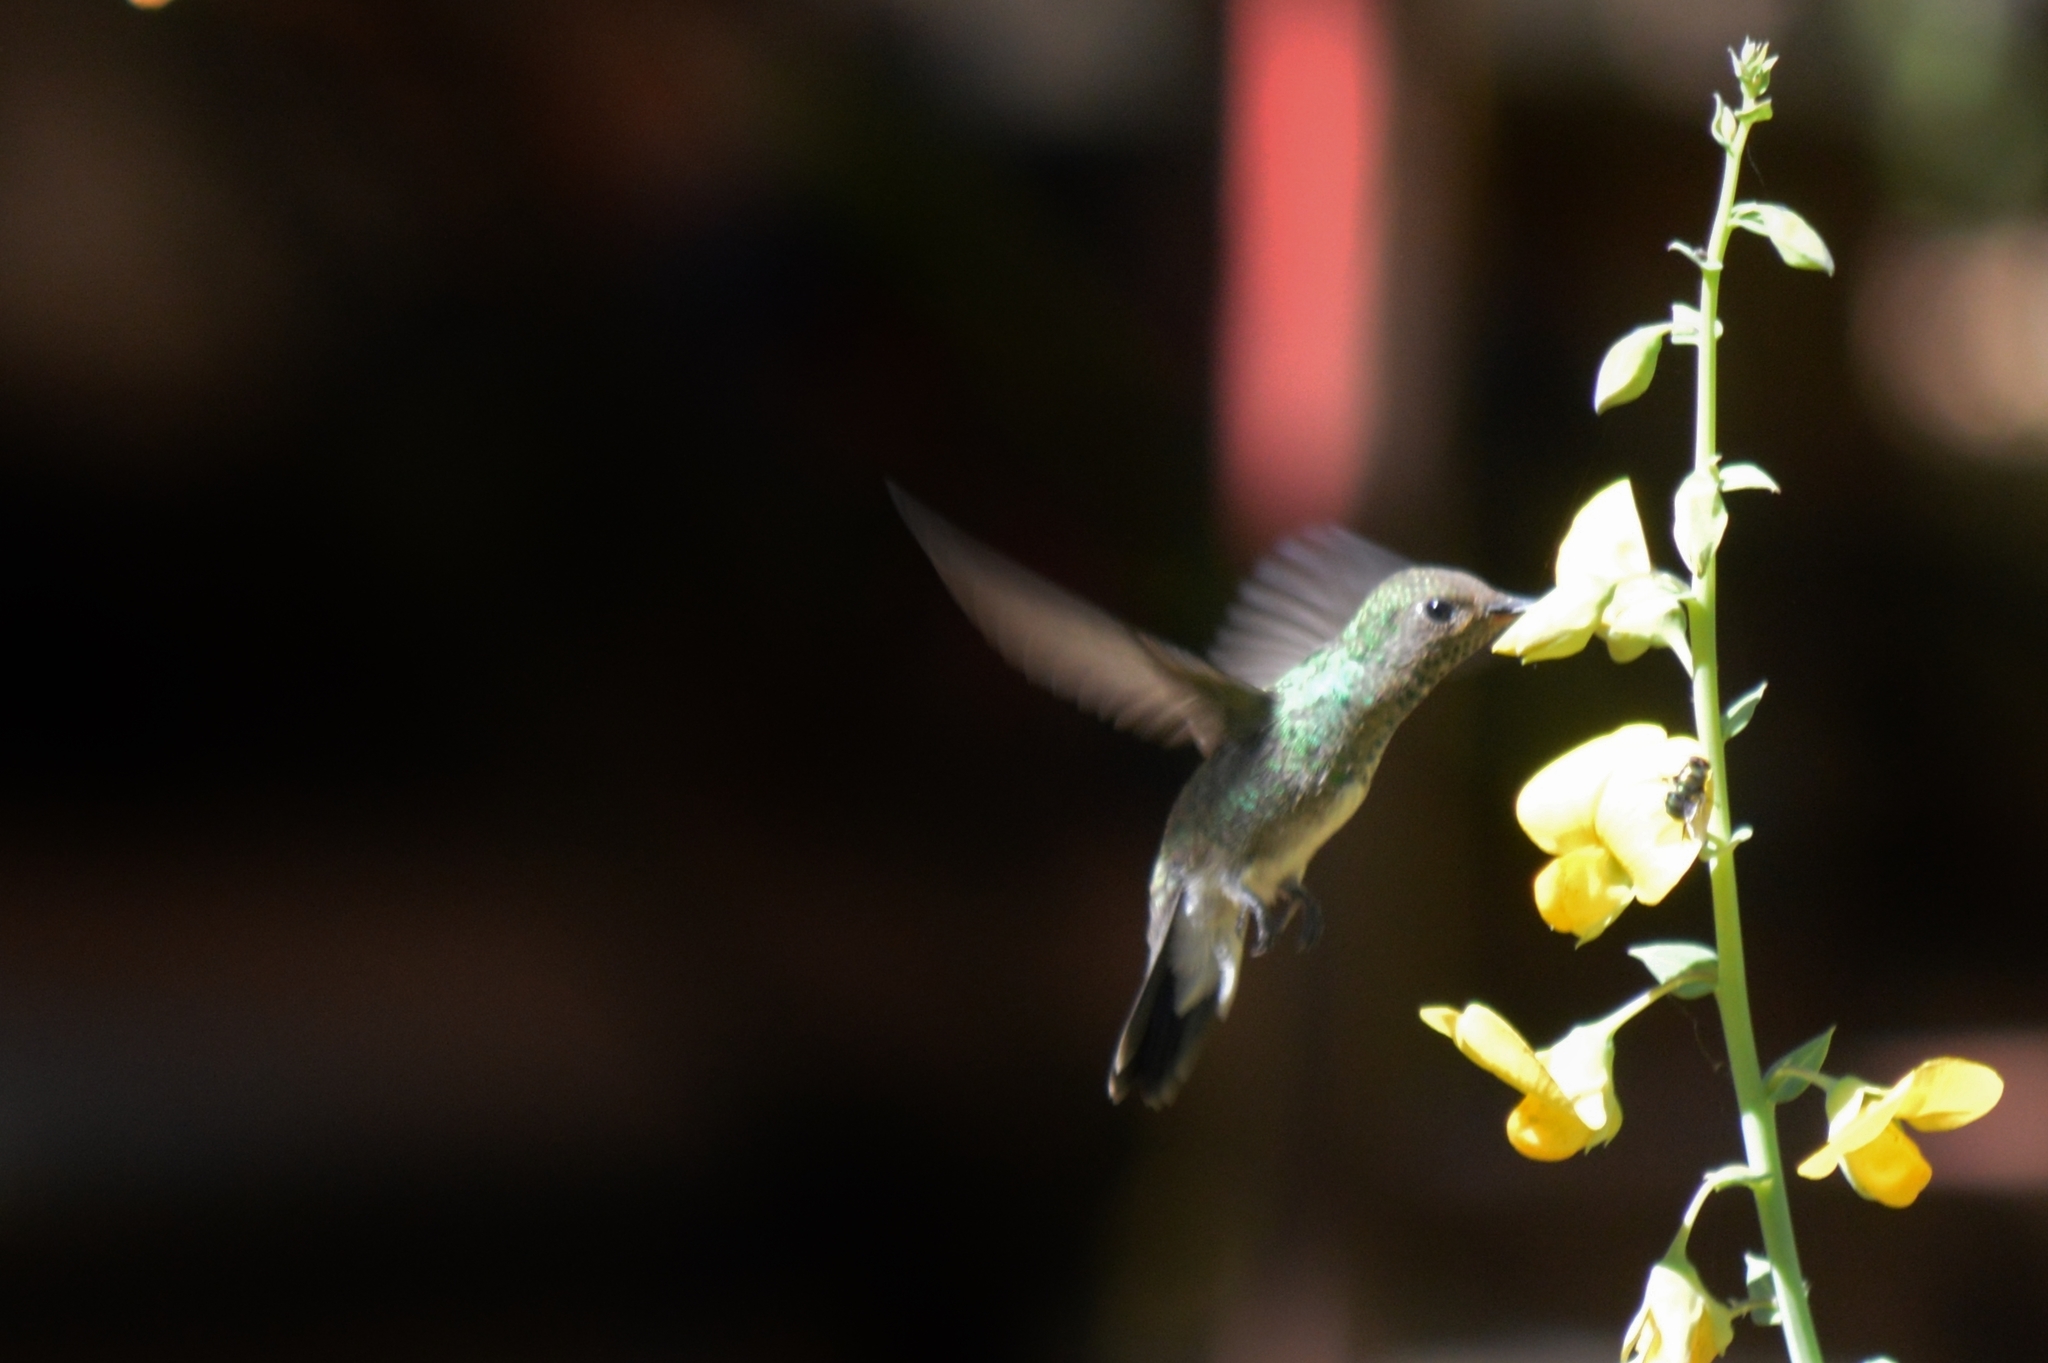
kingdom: Animalia
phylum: Chordata
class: Aves
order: Apodiformes
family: Trochilidae
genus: Chionomesa
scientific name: Chionomesa fimbriata
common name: Glittering-throated emerald
